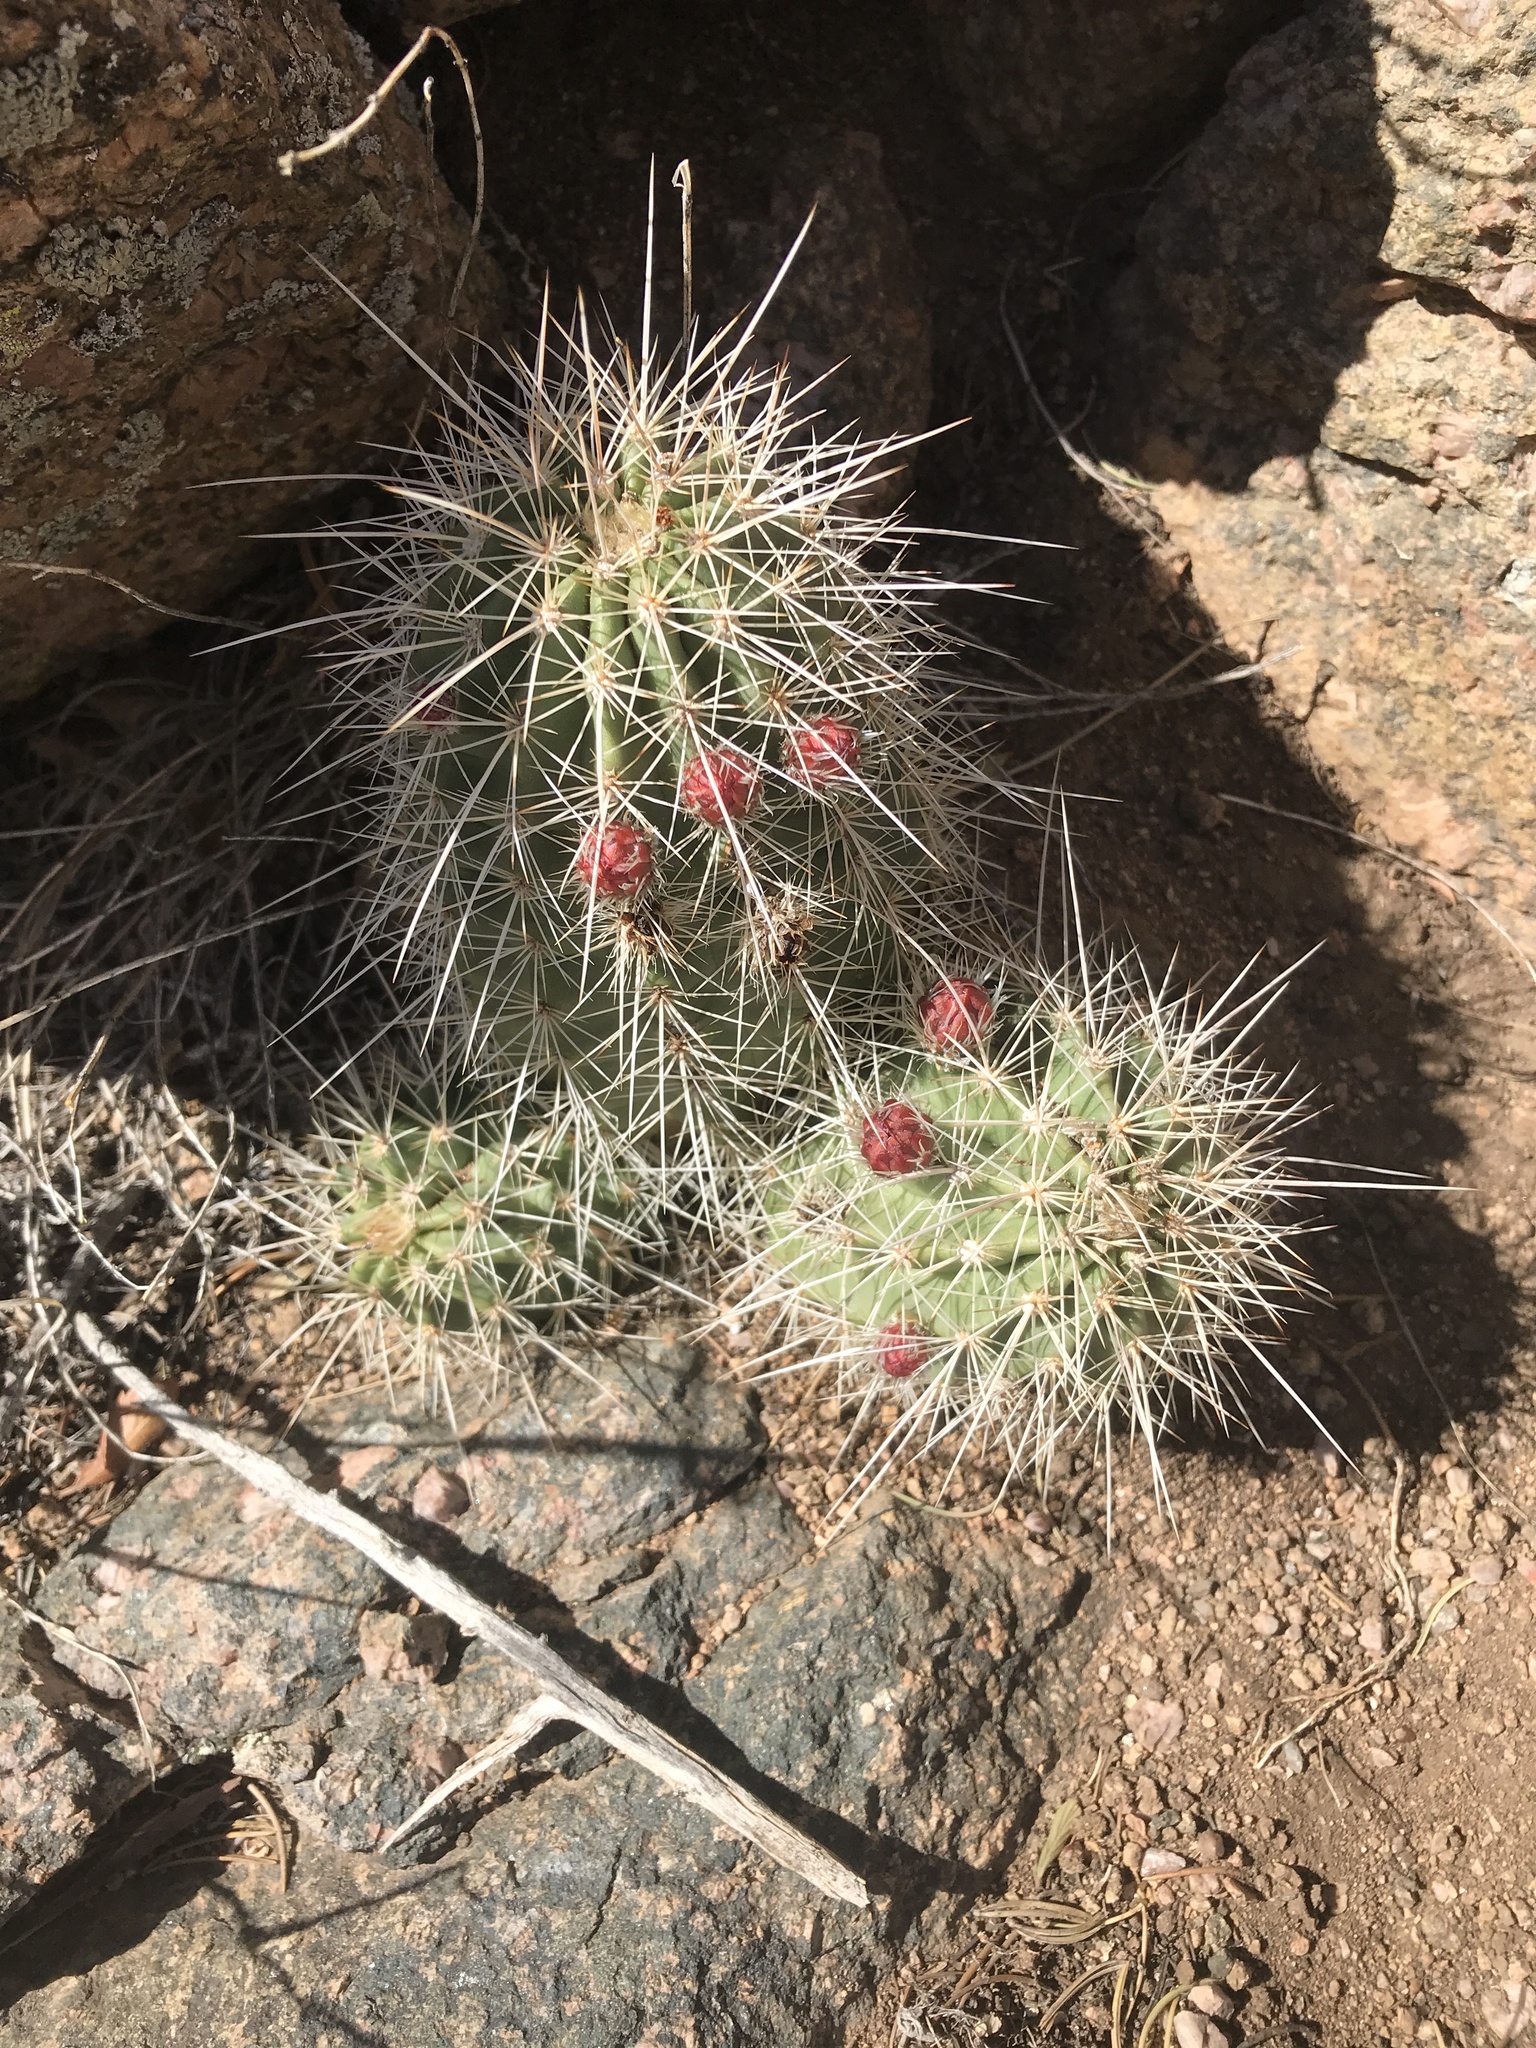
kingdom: Plantae
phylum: Tracheophyta
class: Magnoliopsida
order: Caryophyllales
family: Cactaceae
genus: Echinocereus
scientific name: Echinocereus coccineus
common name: Scarlet hedgehog cactus
